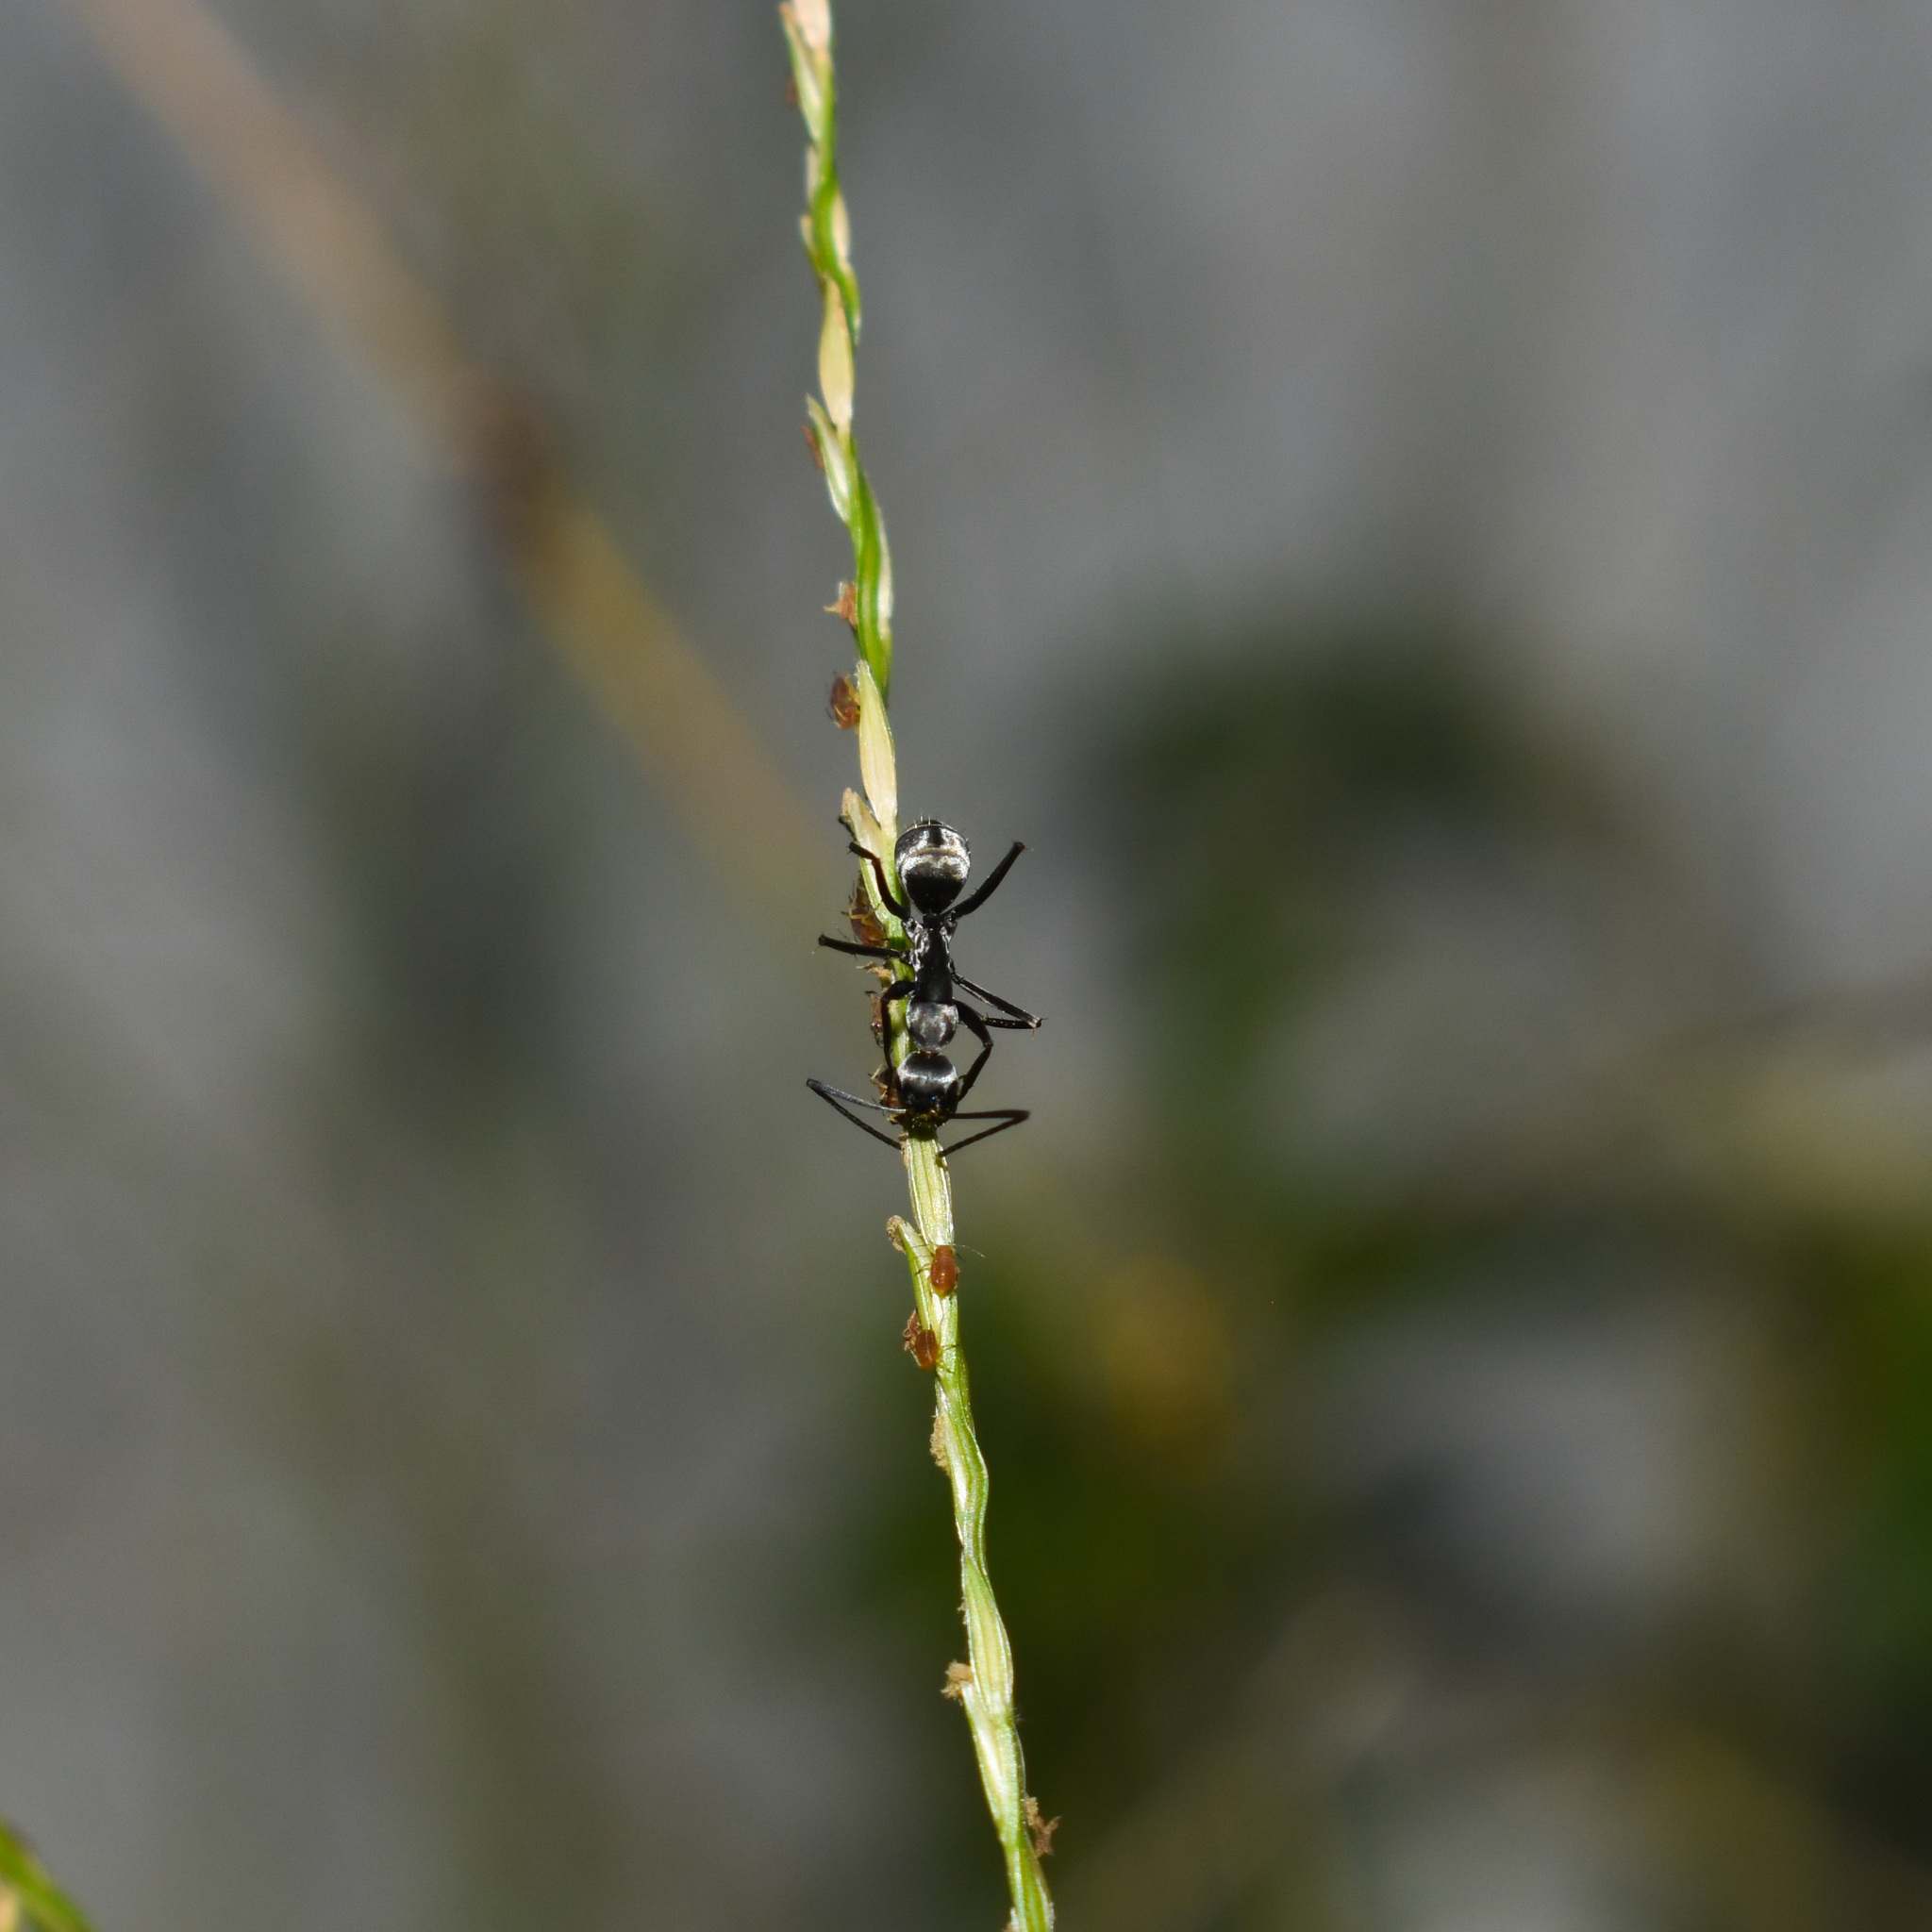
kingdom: Animalia
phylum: Arthropoda
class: Insecta
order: Hymenoptera
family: Formicidae
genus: Camponotus
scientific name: Camponotus parius
